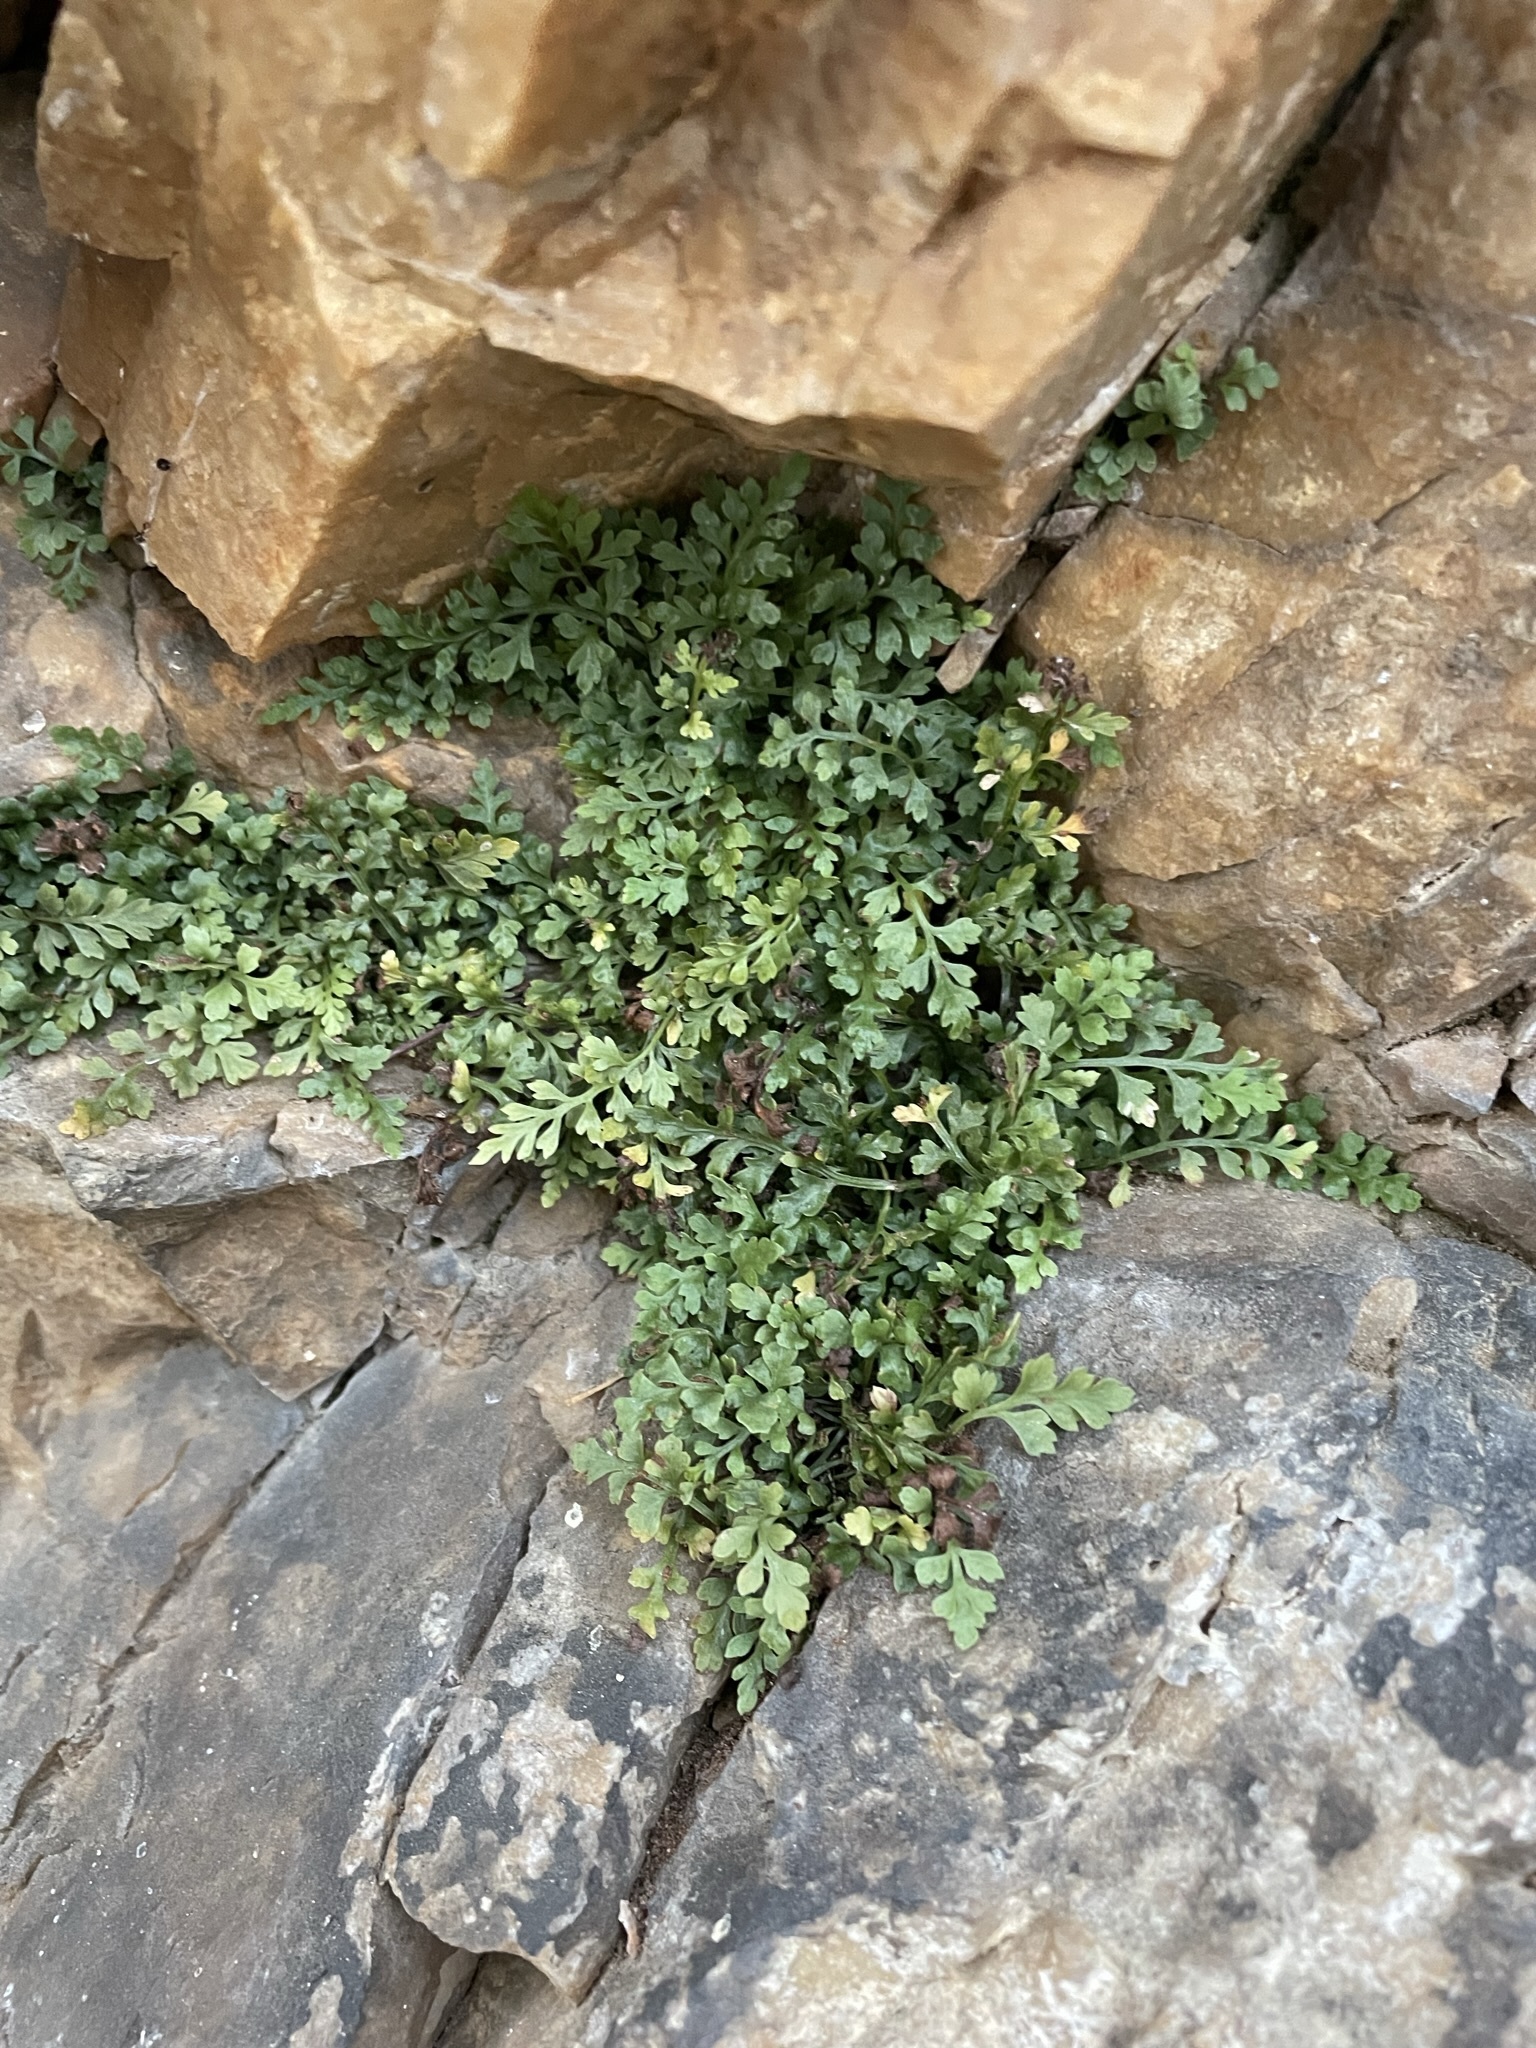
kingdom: Plantae
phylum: Tracheophyta
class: Polypodiopsida
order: Polypodiales
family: Aspleniaceae
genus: Asplenium
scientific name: Asplenium montanum
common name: Mountain spleenwort
